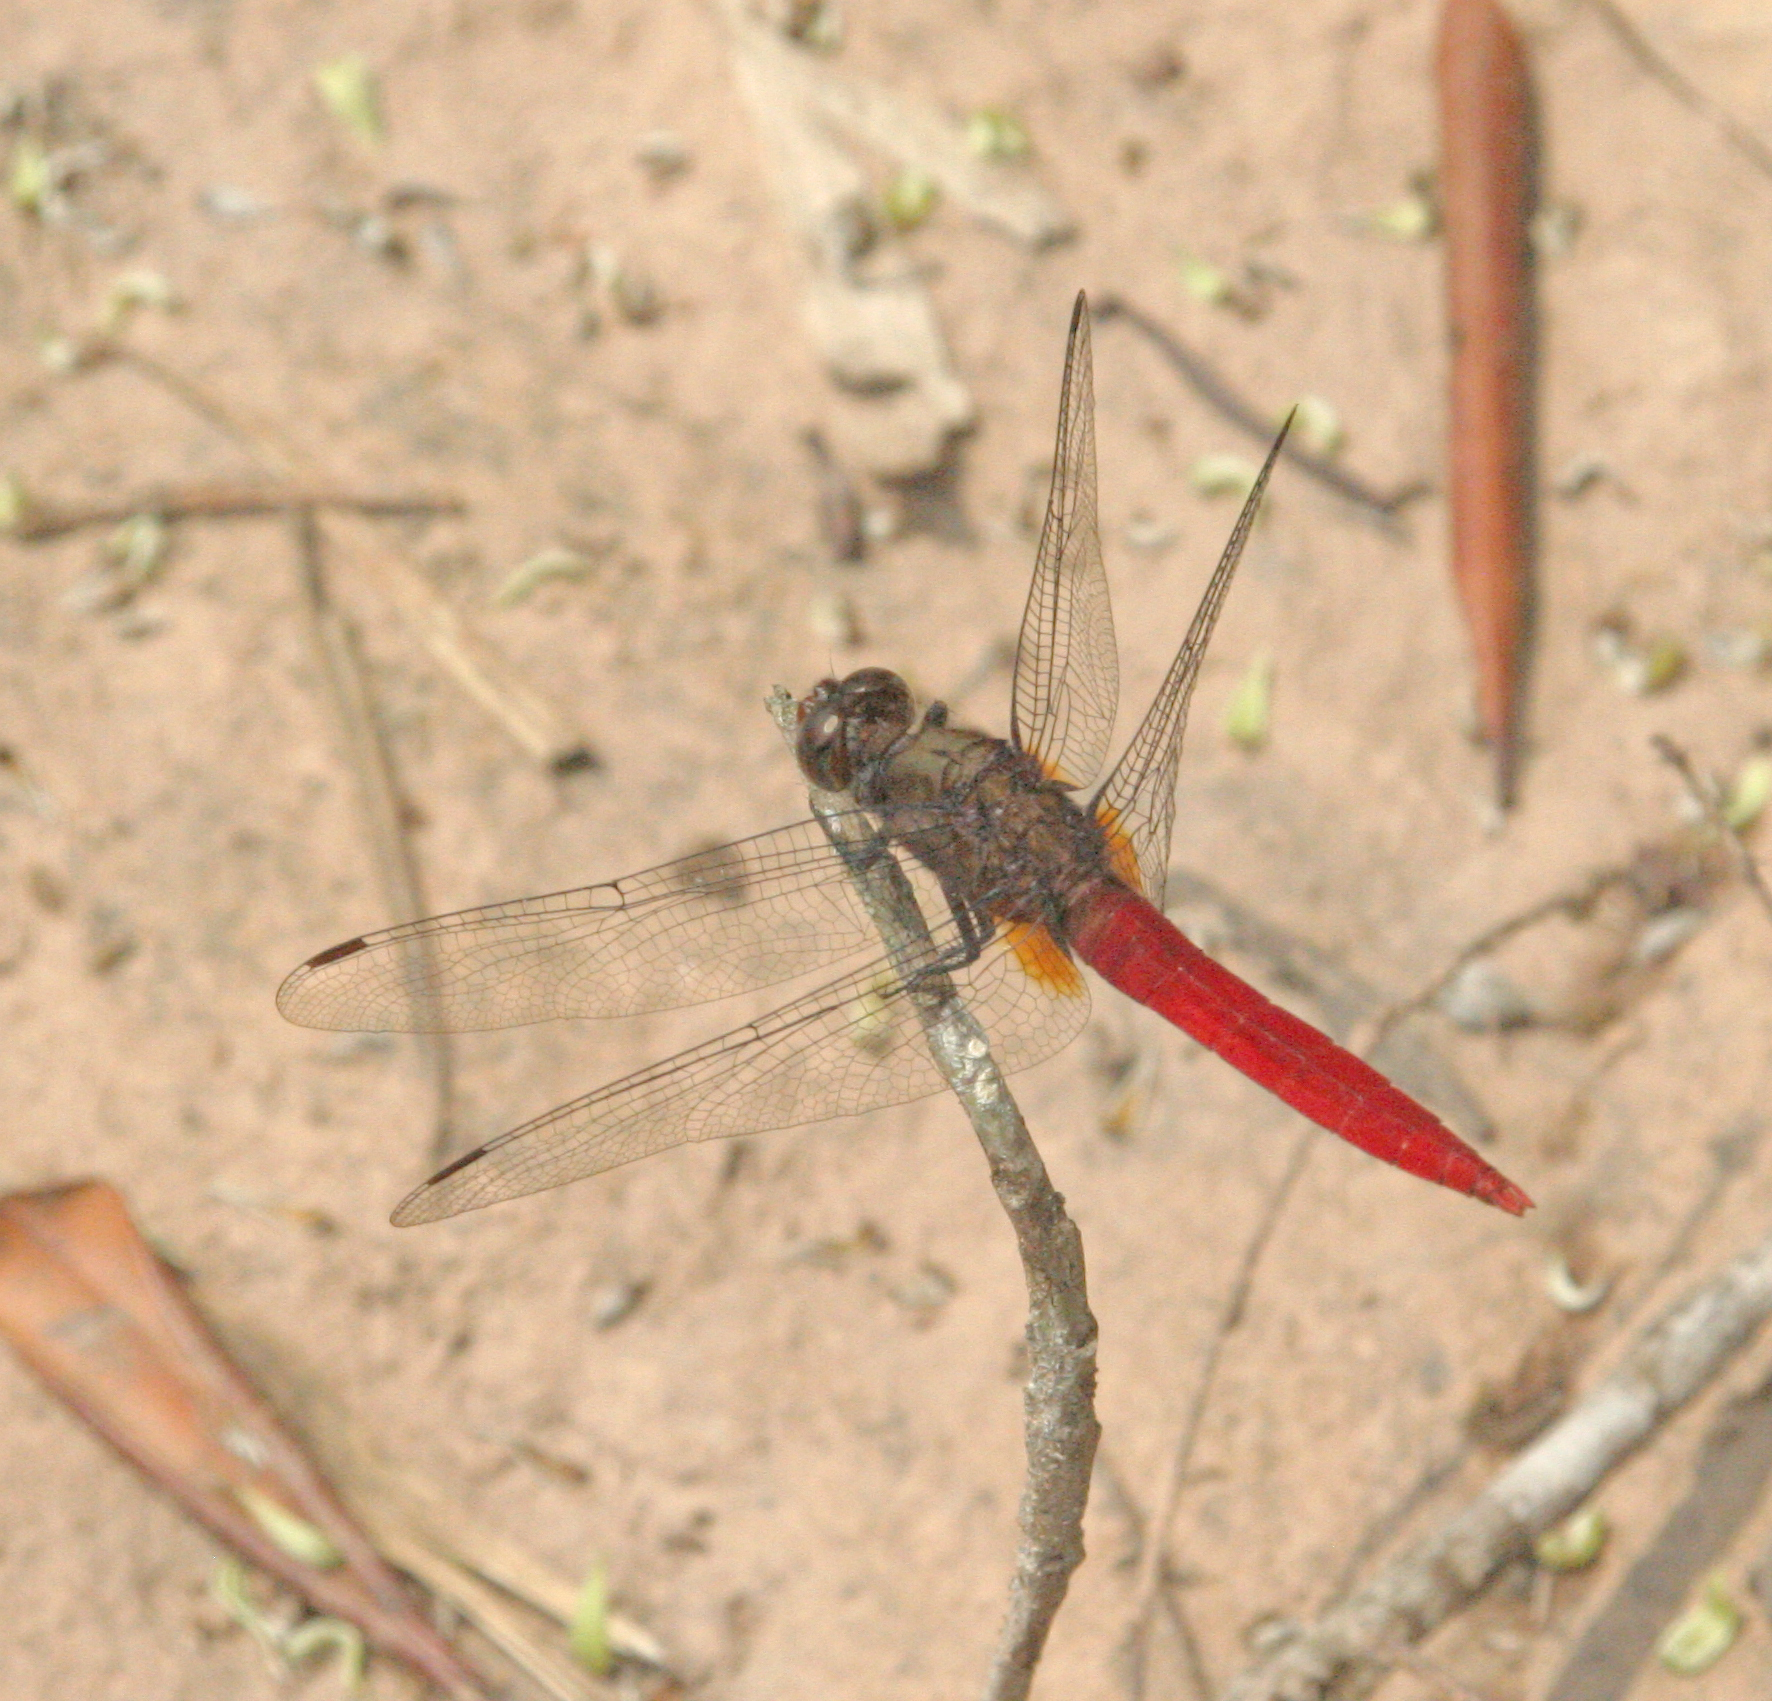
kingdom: Animalia
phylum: Arthropoda
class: Insecta
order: Odonata
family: Libellulidae
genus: Orthetrum
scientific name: Orthetrum chrysis
